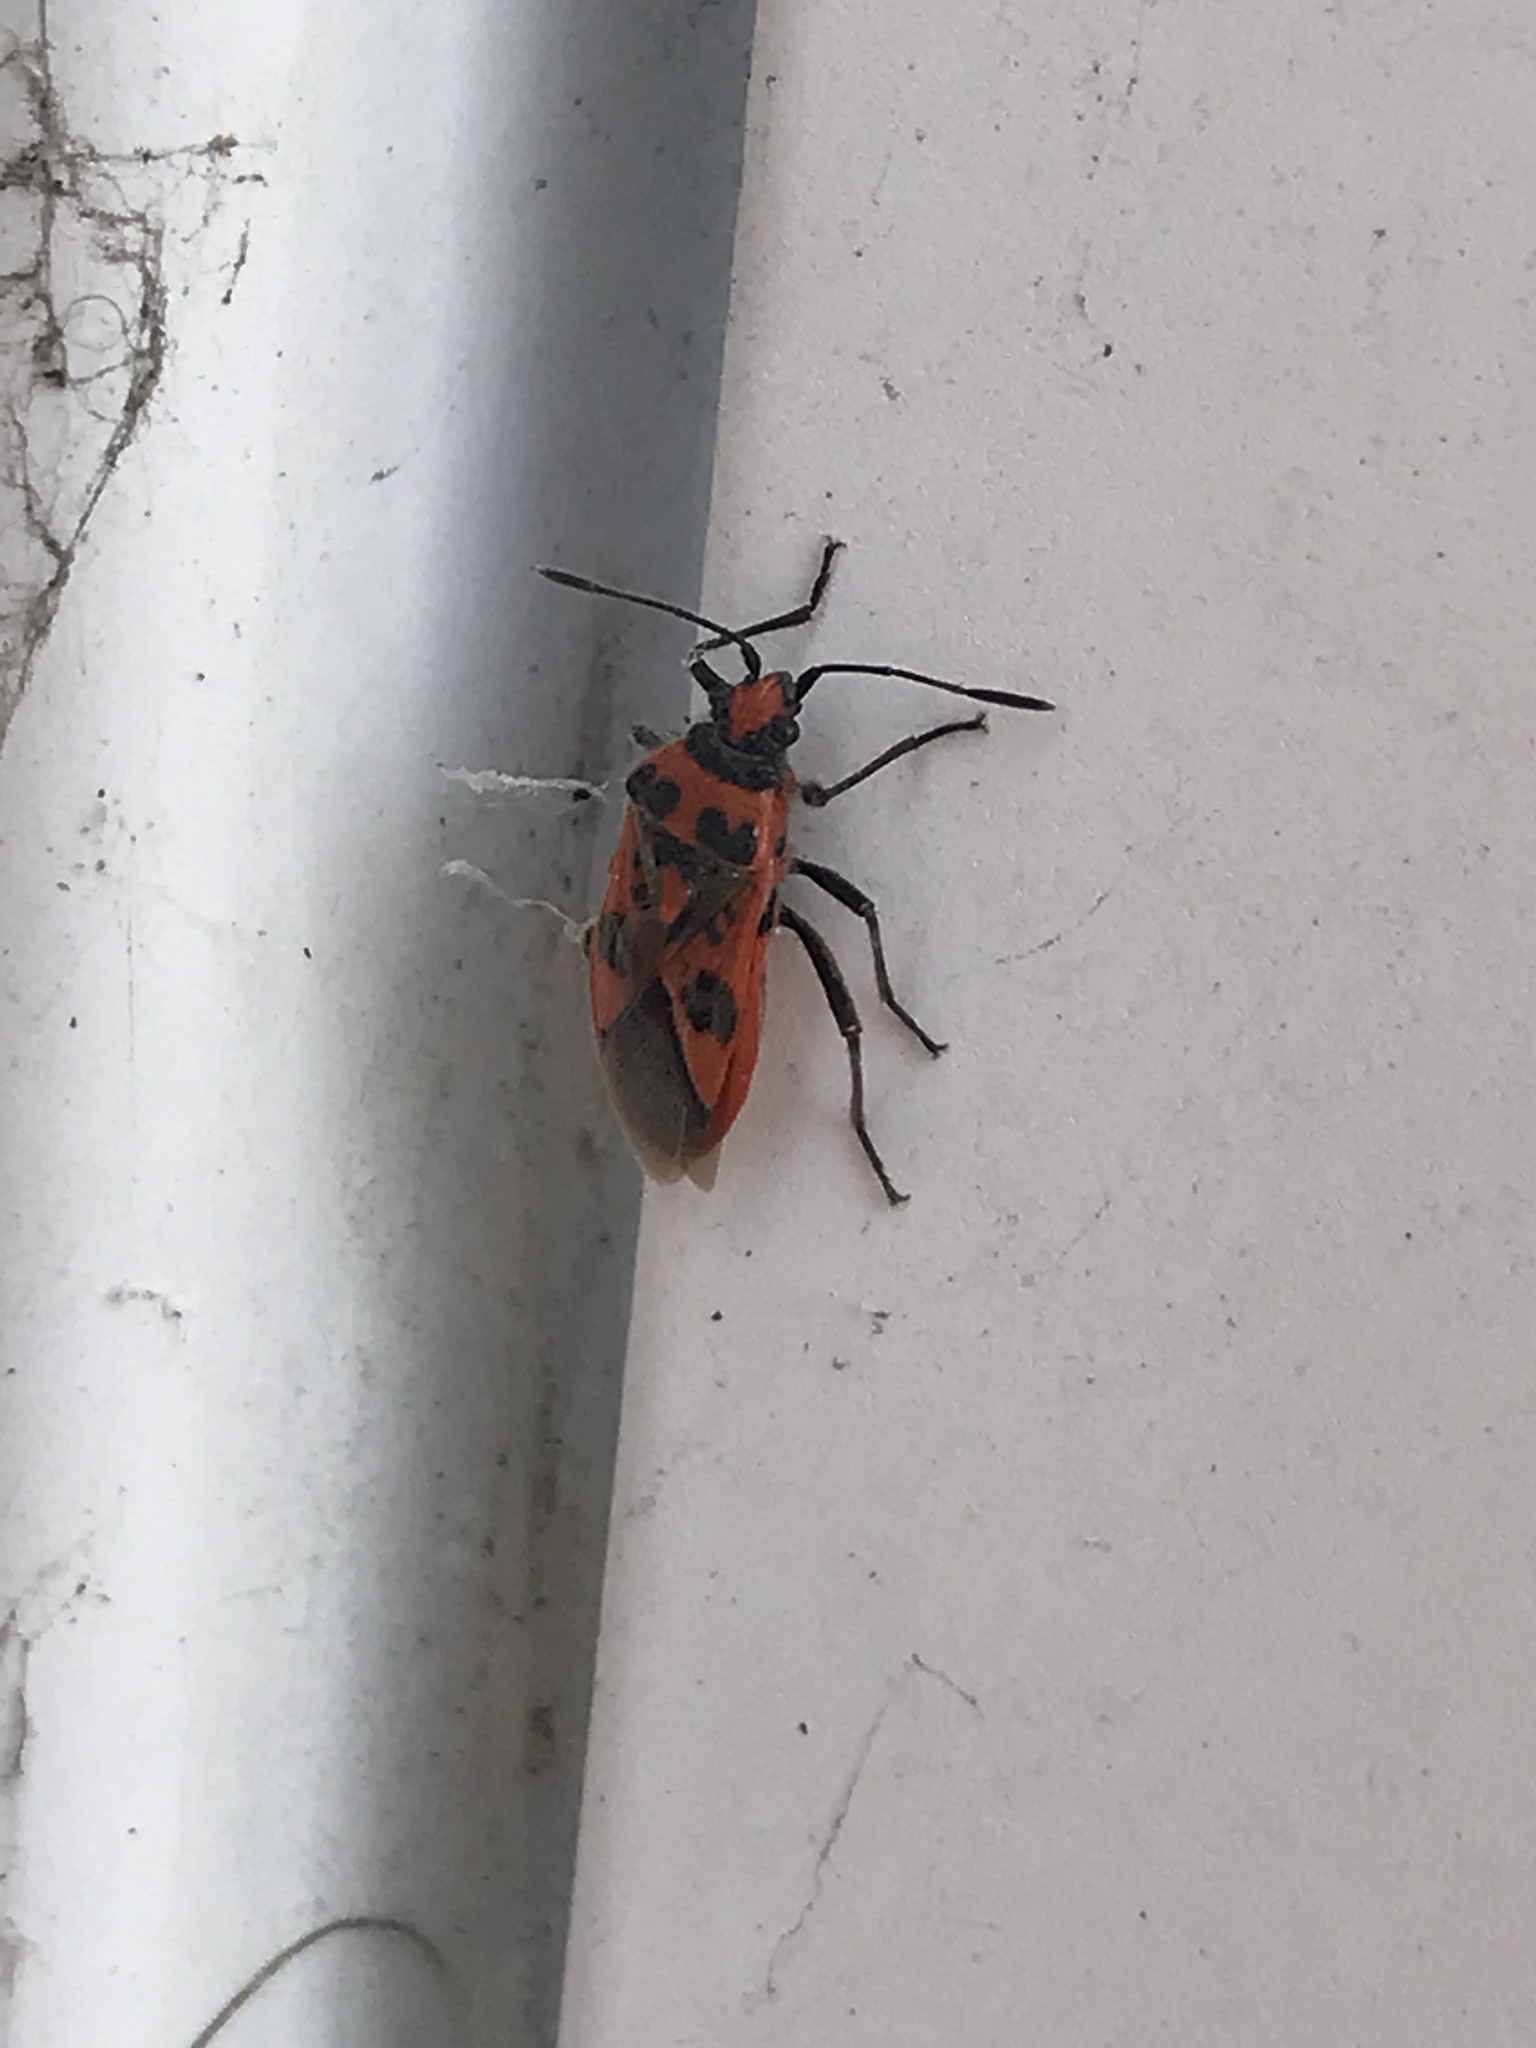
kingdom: Animalia
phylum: Arthropoda
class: Insecta
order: Hemiptera
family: Rhopalidae
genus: Corizus
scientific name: Corizus hyoscyami
